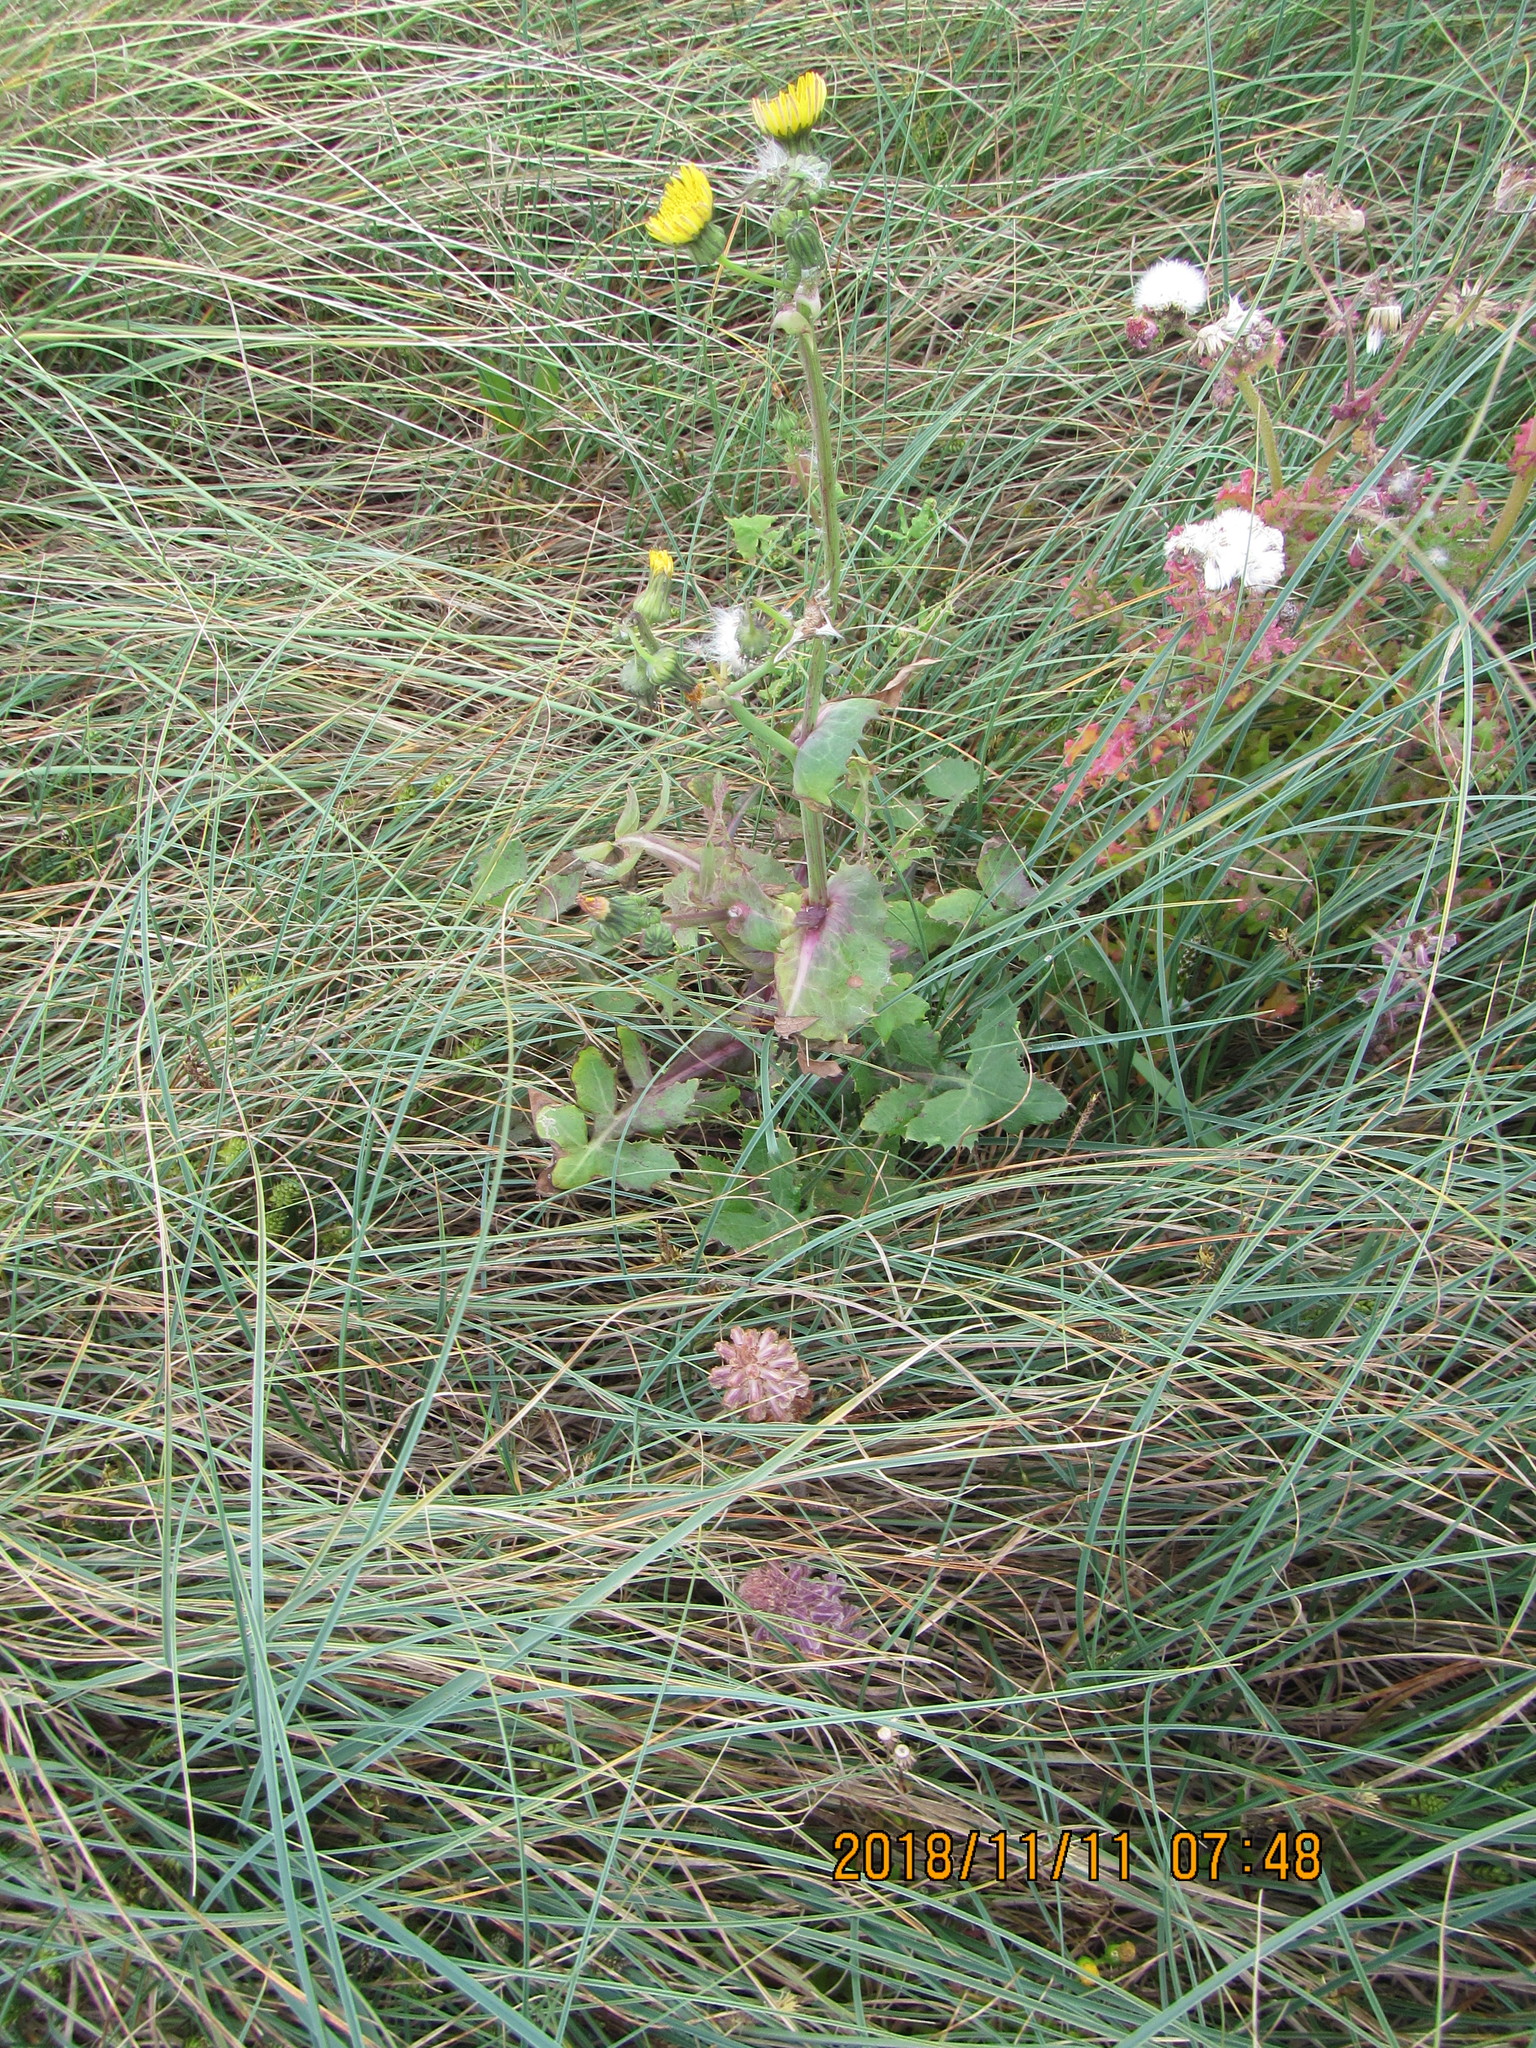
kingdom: Plantae
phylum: Tracheophyta
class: Magnoliopsida
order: Asterales
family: Asteraceae
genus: Sonchus
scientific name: Sonchus oleraceus
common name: Common sowthistle
